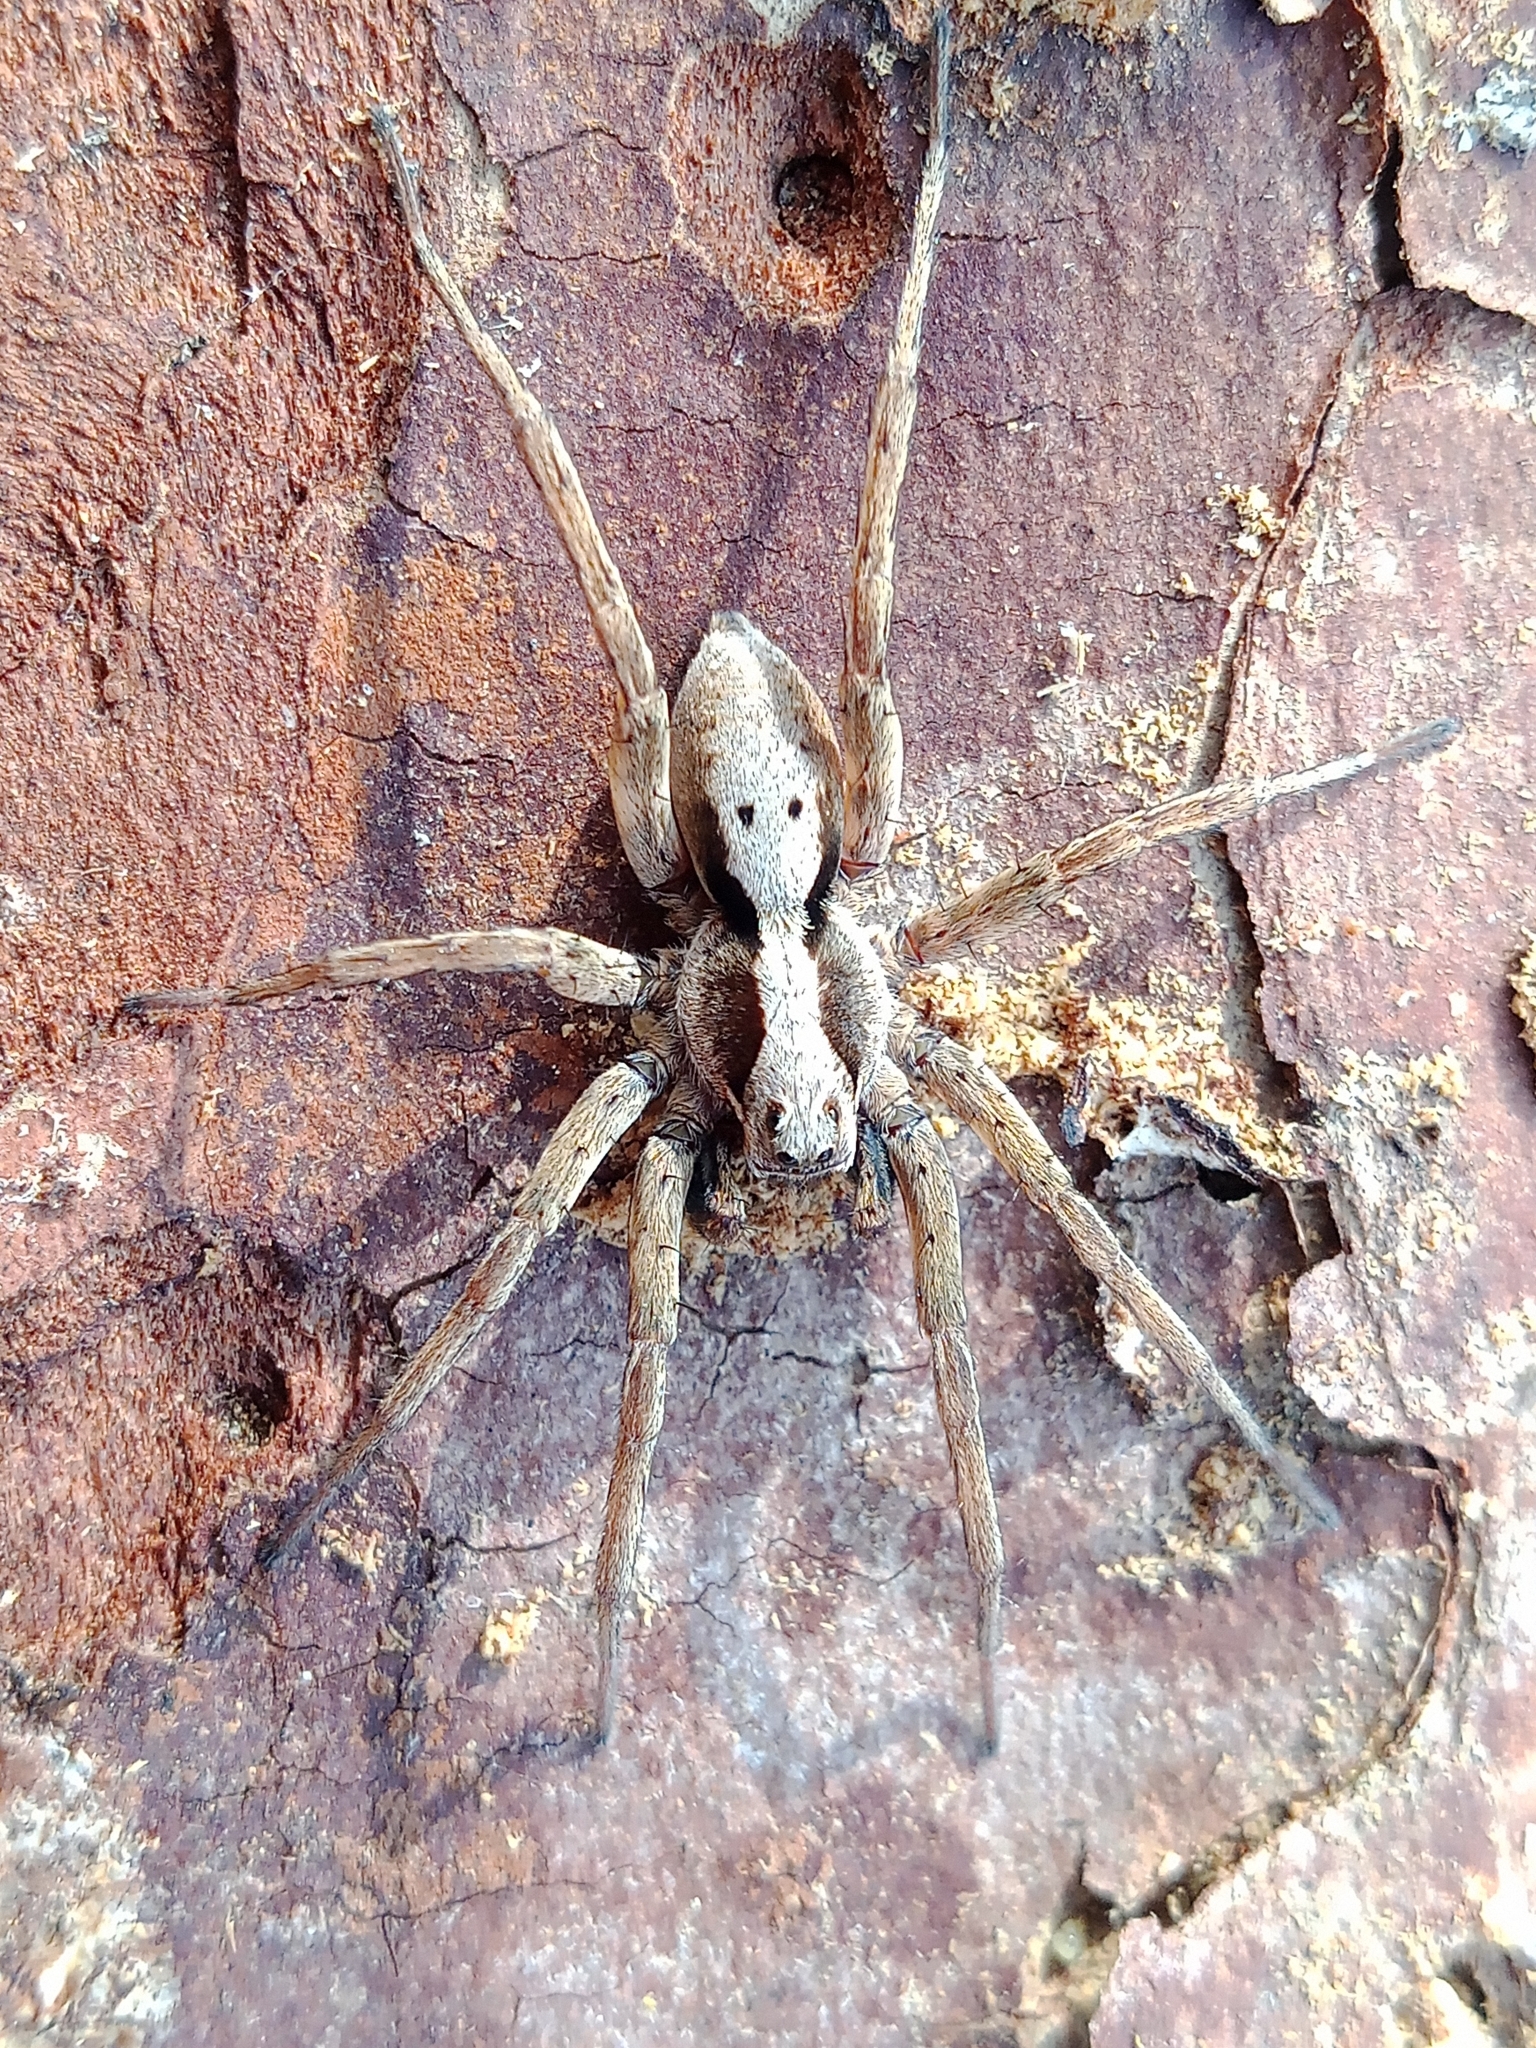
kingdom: Animalia
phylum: Arthropoda
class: Arachnida
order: Araneae
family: Lycosidae
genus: Alopecosa
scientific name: Alopecosa inquilina
